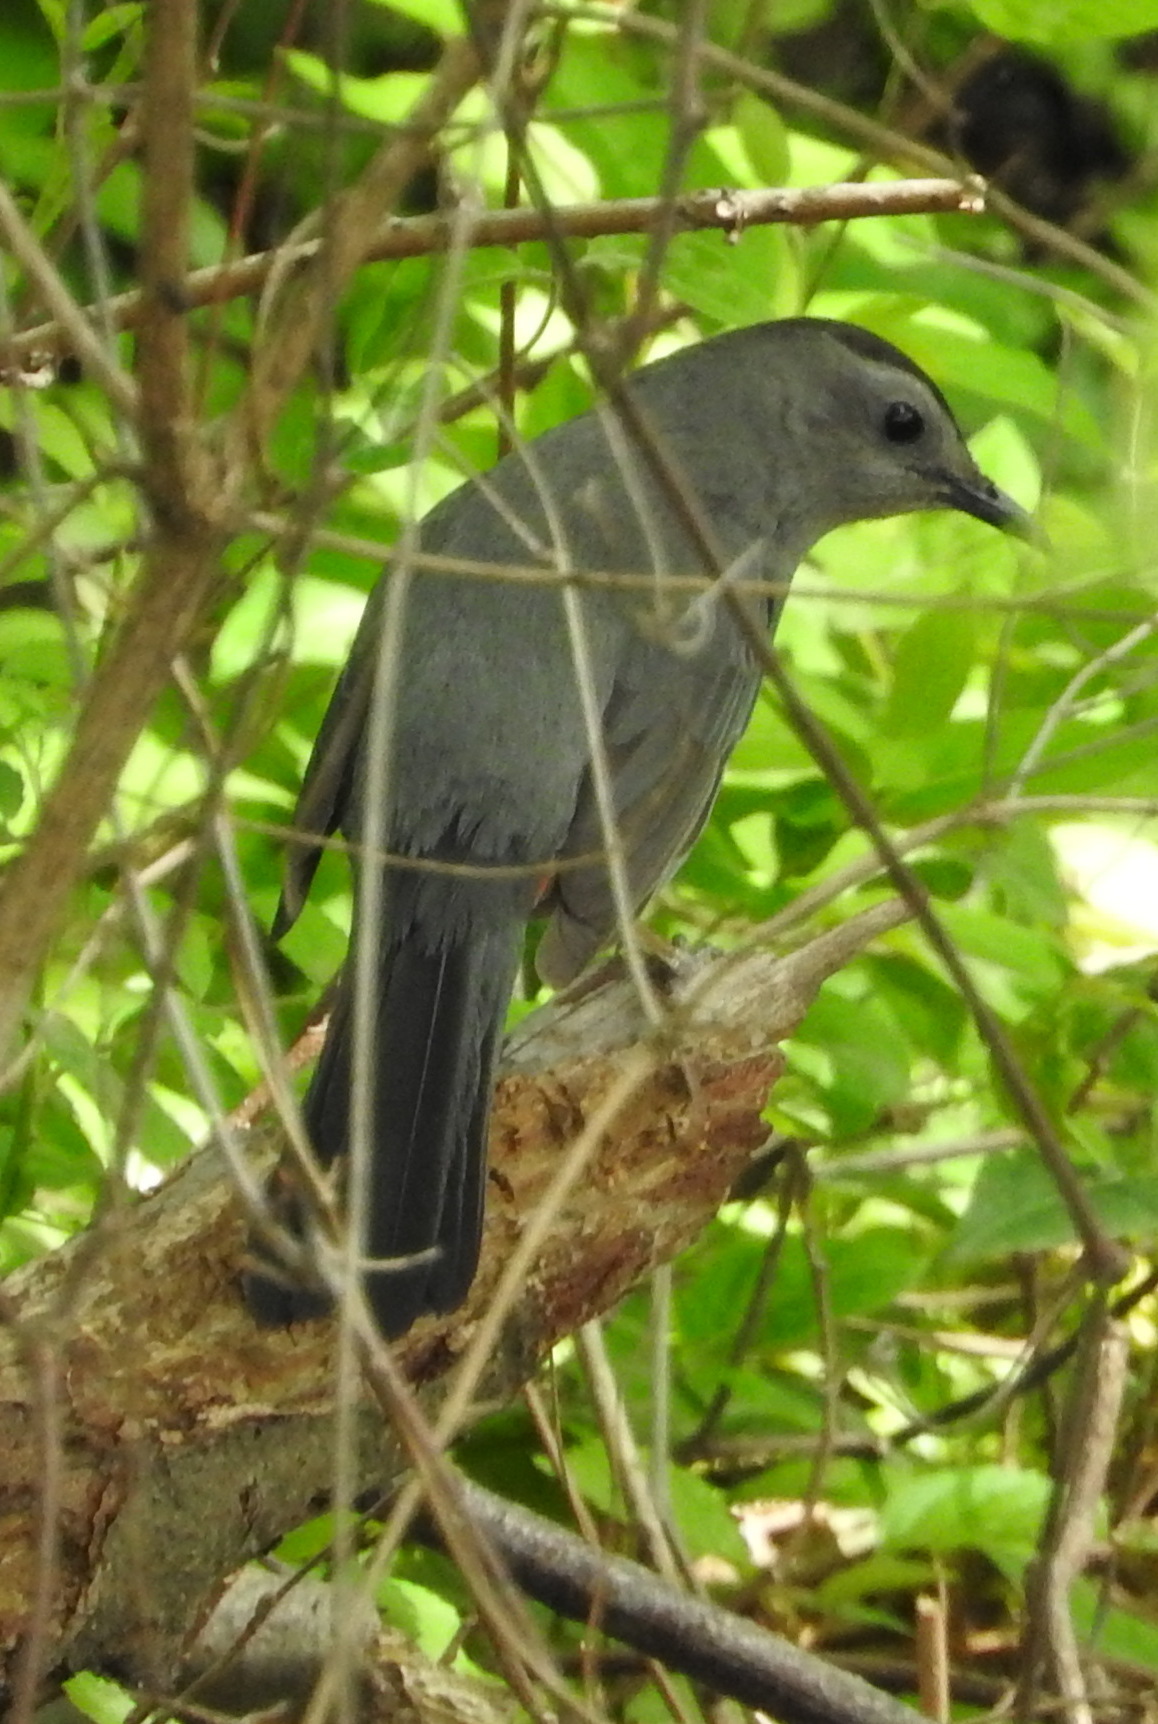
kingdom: Animalia
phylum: Chordata
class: Aves
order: Passeriformes
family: Mimidae
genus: Dumetella
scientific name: Dumetella carolinensis
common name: Gray catbird
